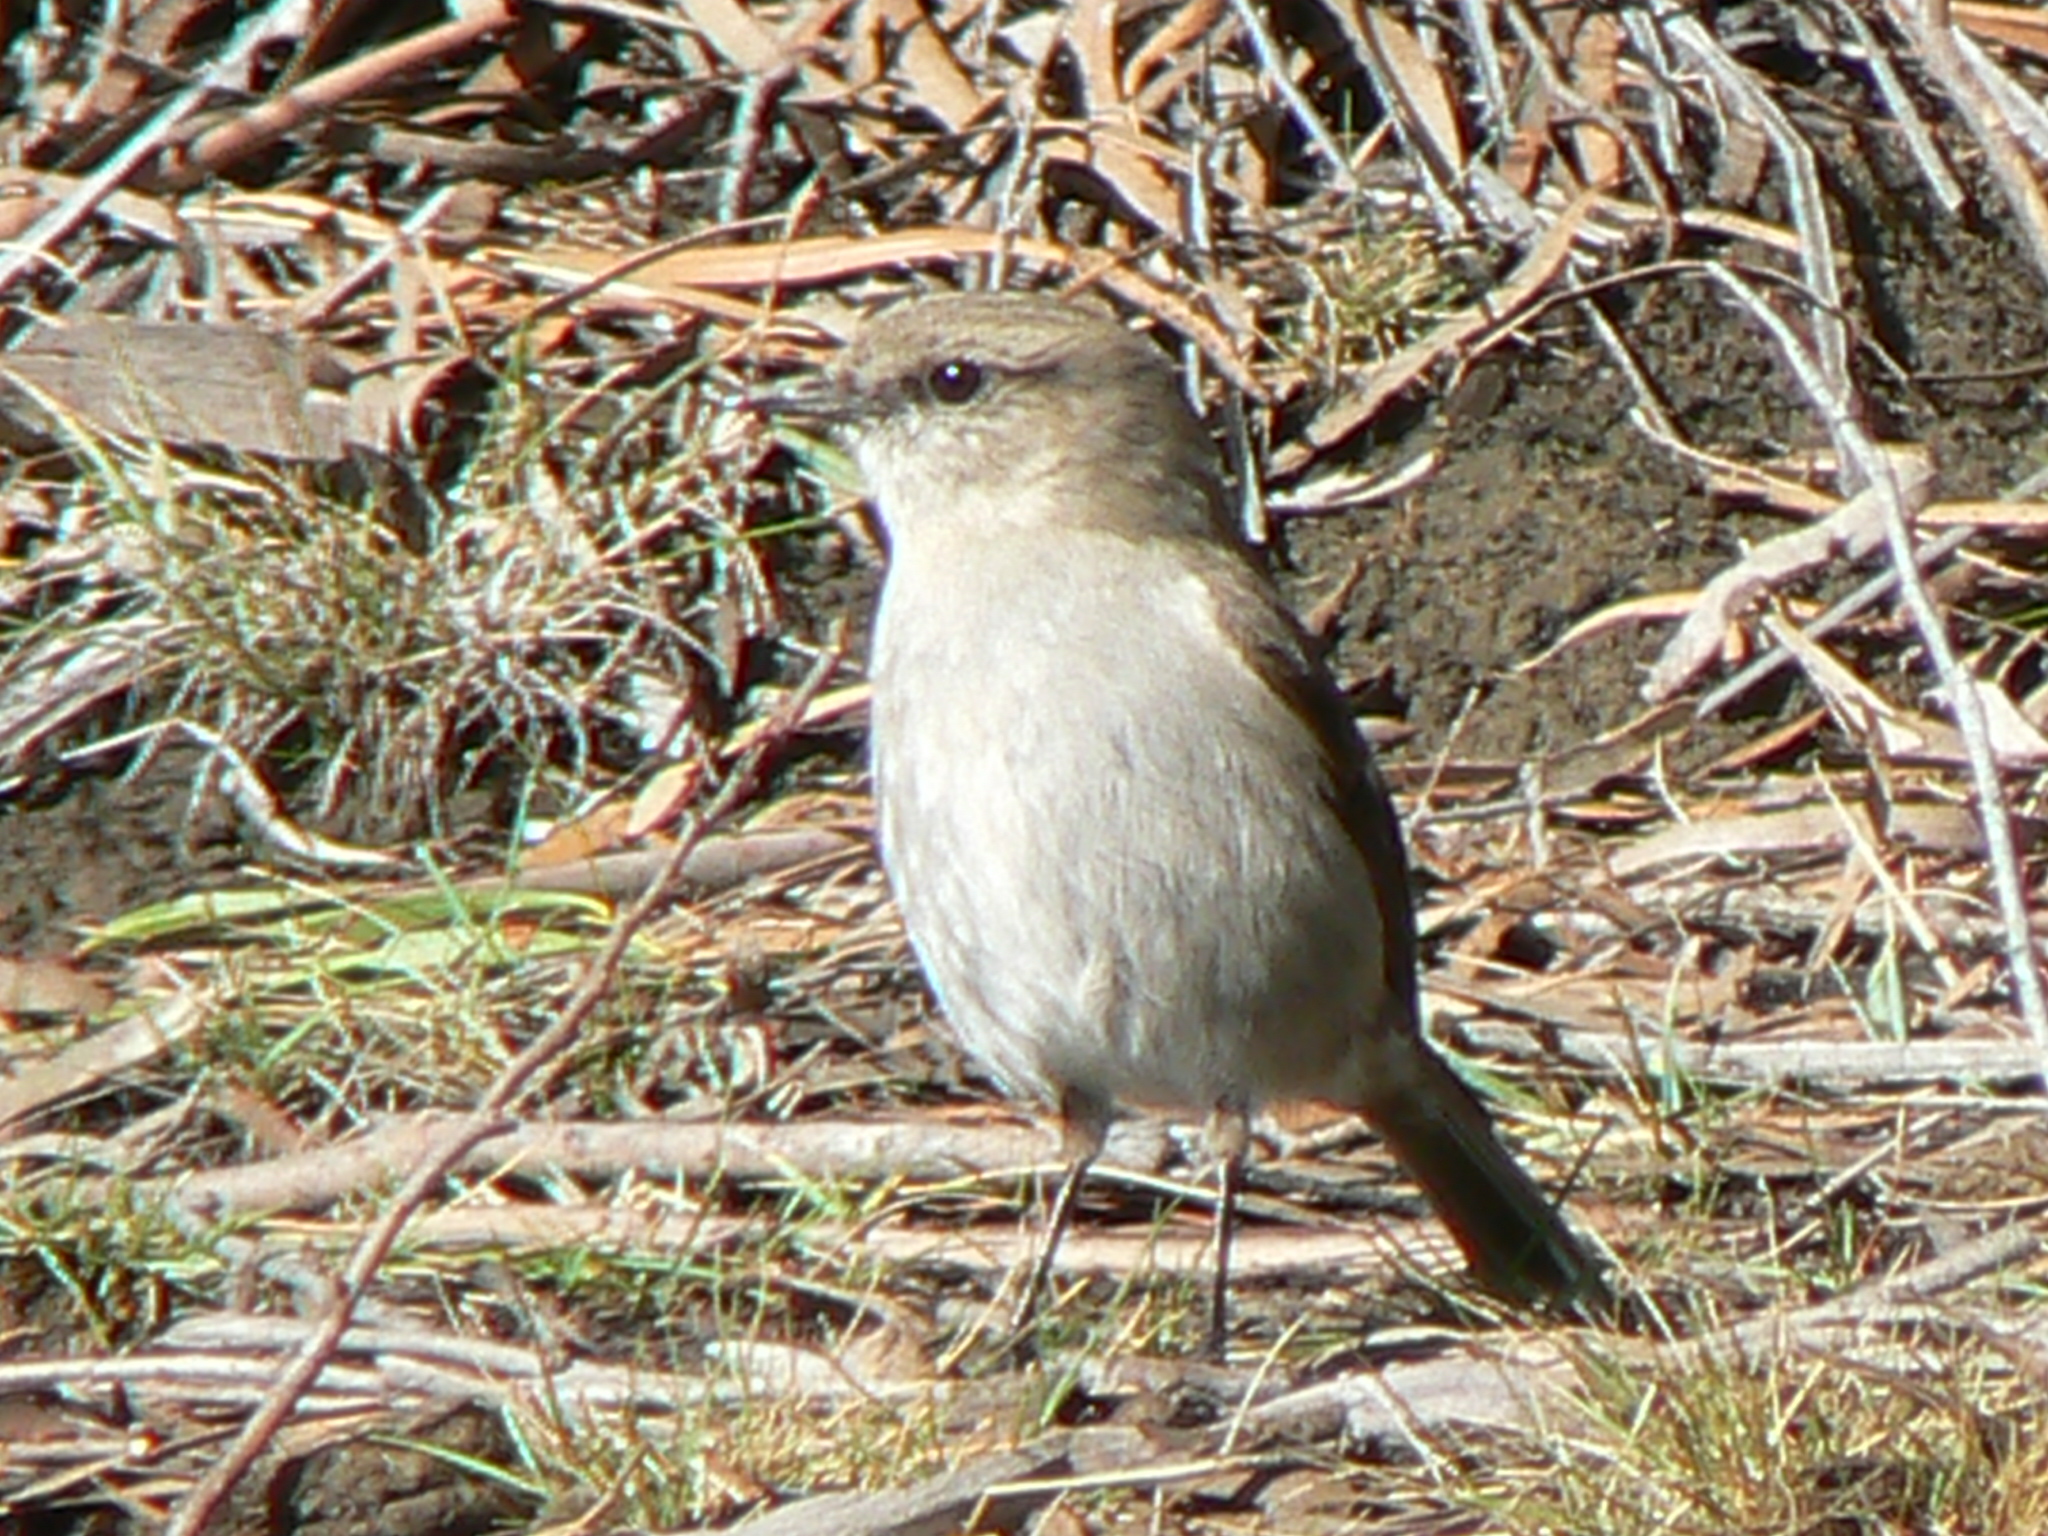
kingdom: Animalia
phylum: Chordata
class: Aves
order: Passeriformes
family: Petroicidae
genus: Melanodryas
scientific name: Melanodryas vittata
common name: Dusky robin
